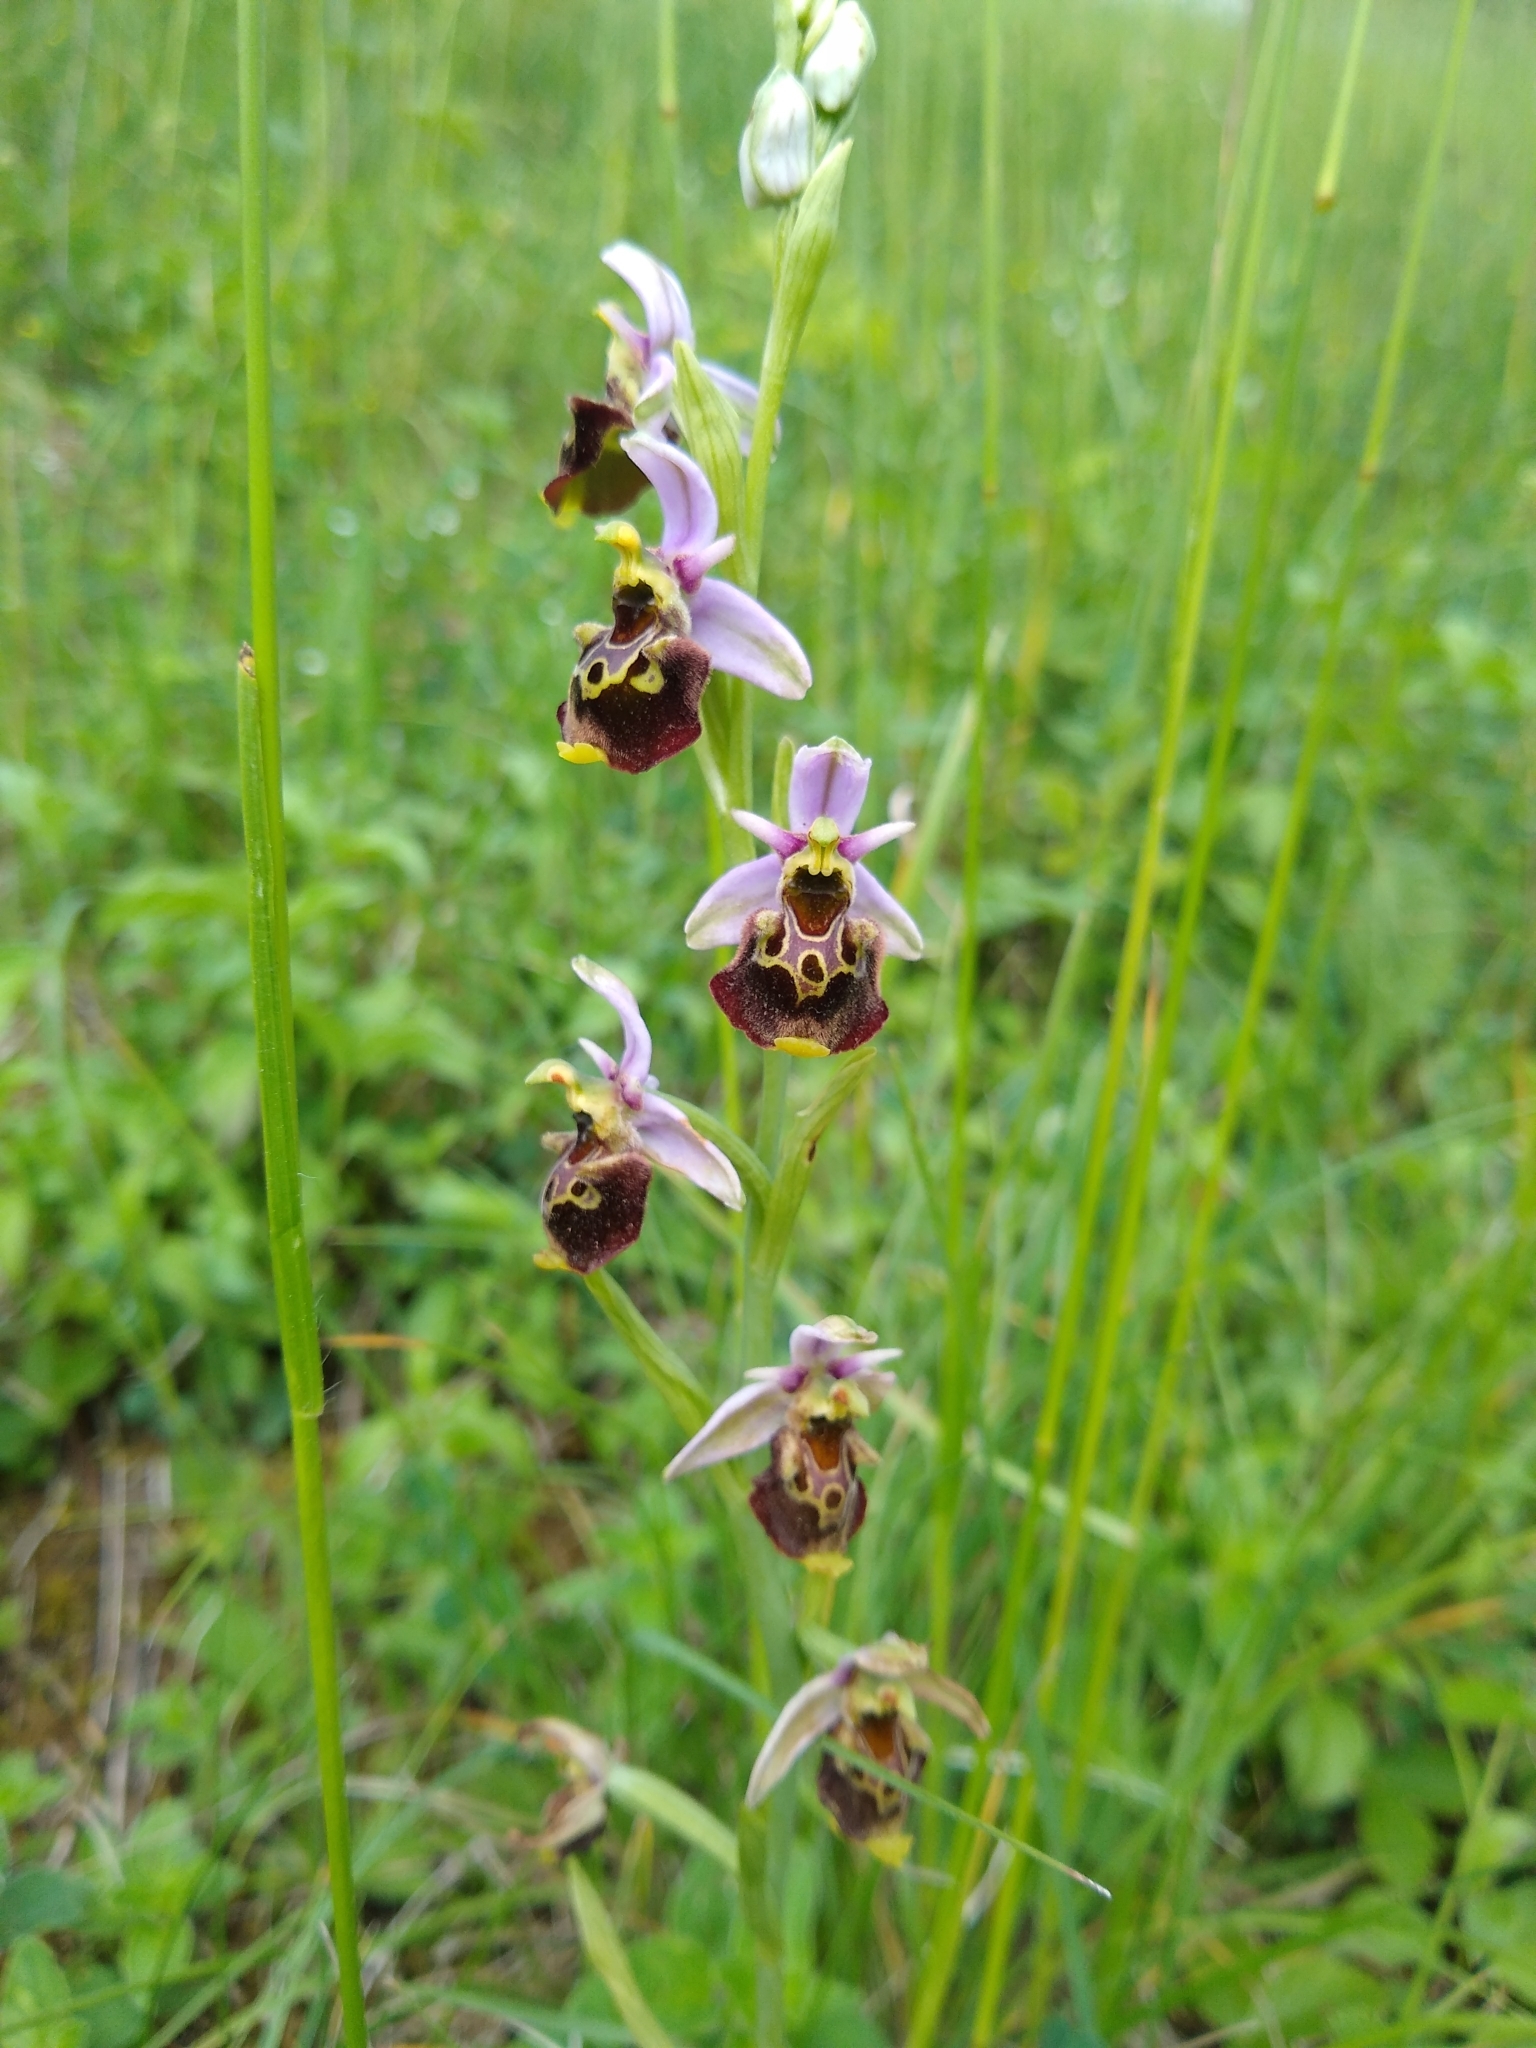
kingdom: Plantae
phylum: Tracheophyta
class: Liliopsida
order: Asparagales
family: Orchidaceae
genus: Ophrys
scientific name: Ophrys holosericea
